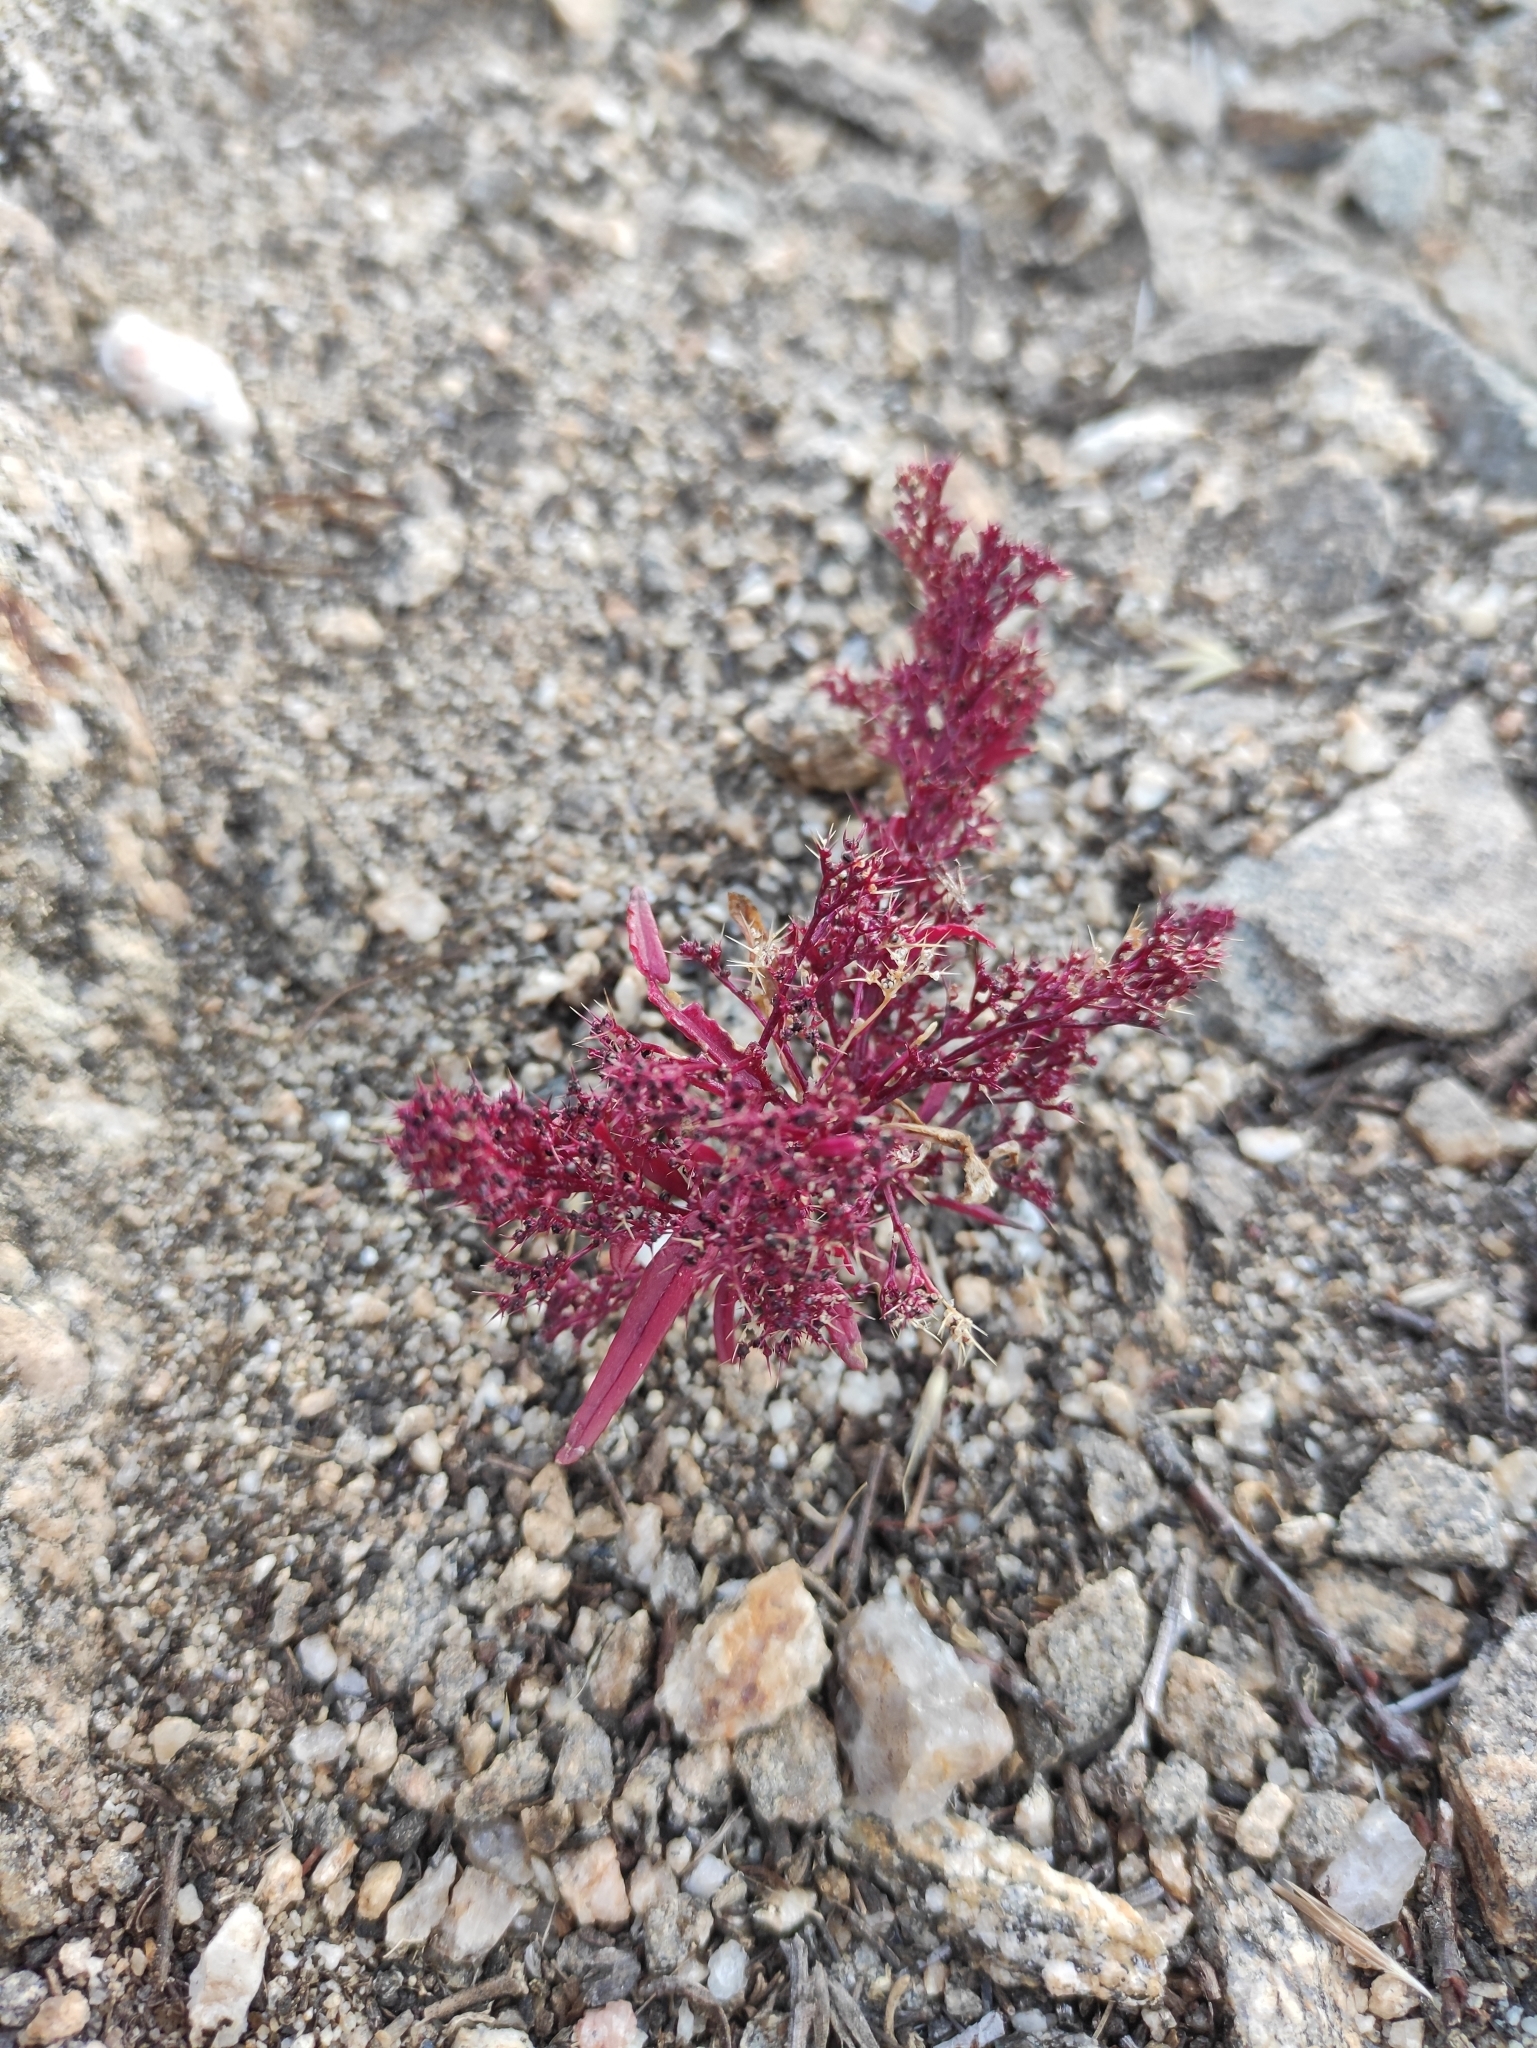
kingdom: Plantae
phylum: Tracheophyta
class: Magnoliopsida
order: Caryophyllales
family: Amaranthaceae
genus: Teloxys
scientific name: Teloxys aristata
